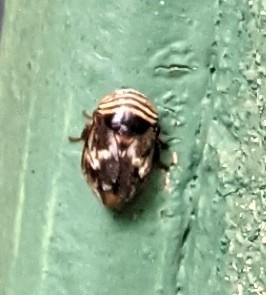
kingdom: Animalia
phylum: Arthropoda
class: Insecta
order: Hemiptera
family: Clastopteridae
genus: Clastoptera
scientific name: Clastoptera obtusa
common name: Alder spittlebug
